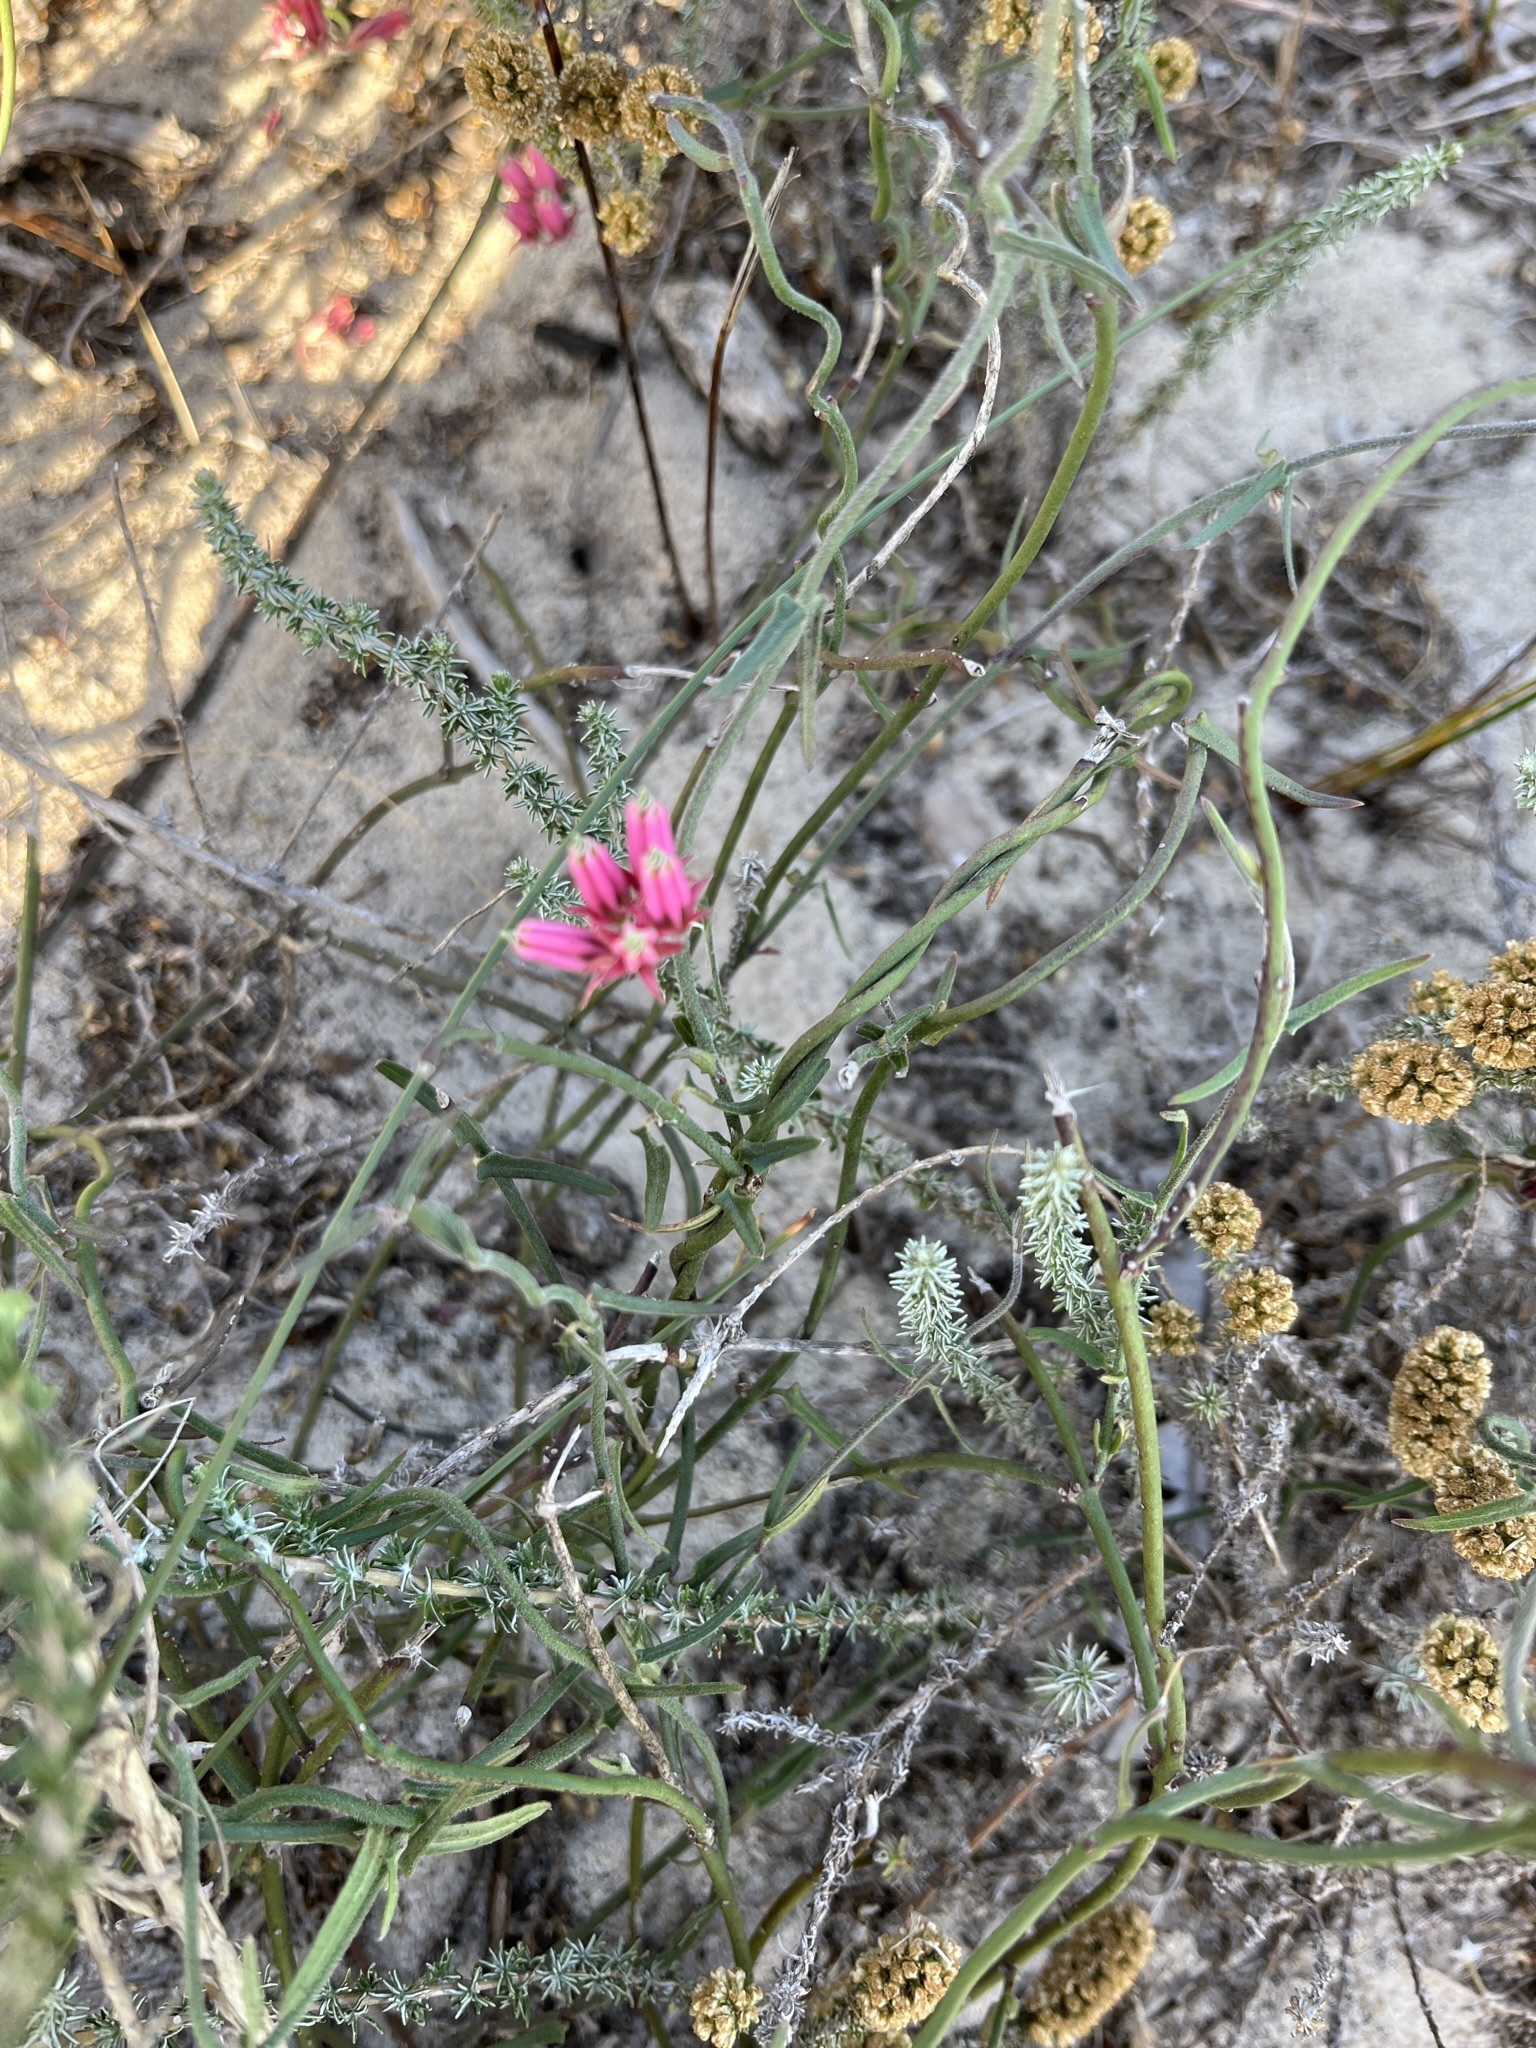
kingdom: Plantae
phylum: Tracheophyta
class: Magnoliopsida
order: Gentianales
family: Apocynaceae
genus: Microloma
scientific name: Microloma sagittatum
